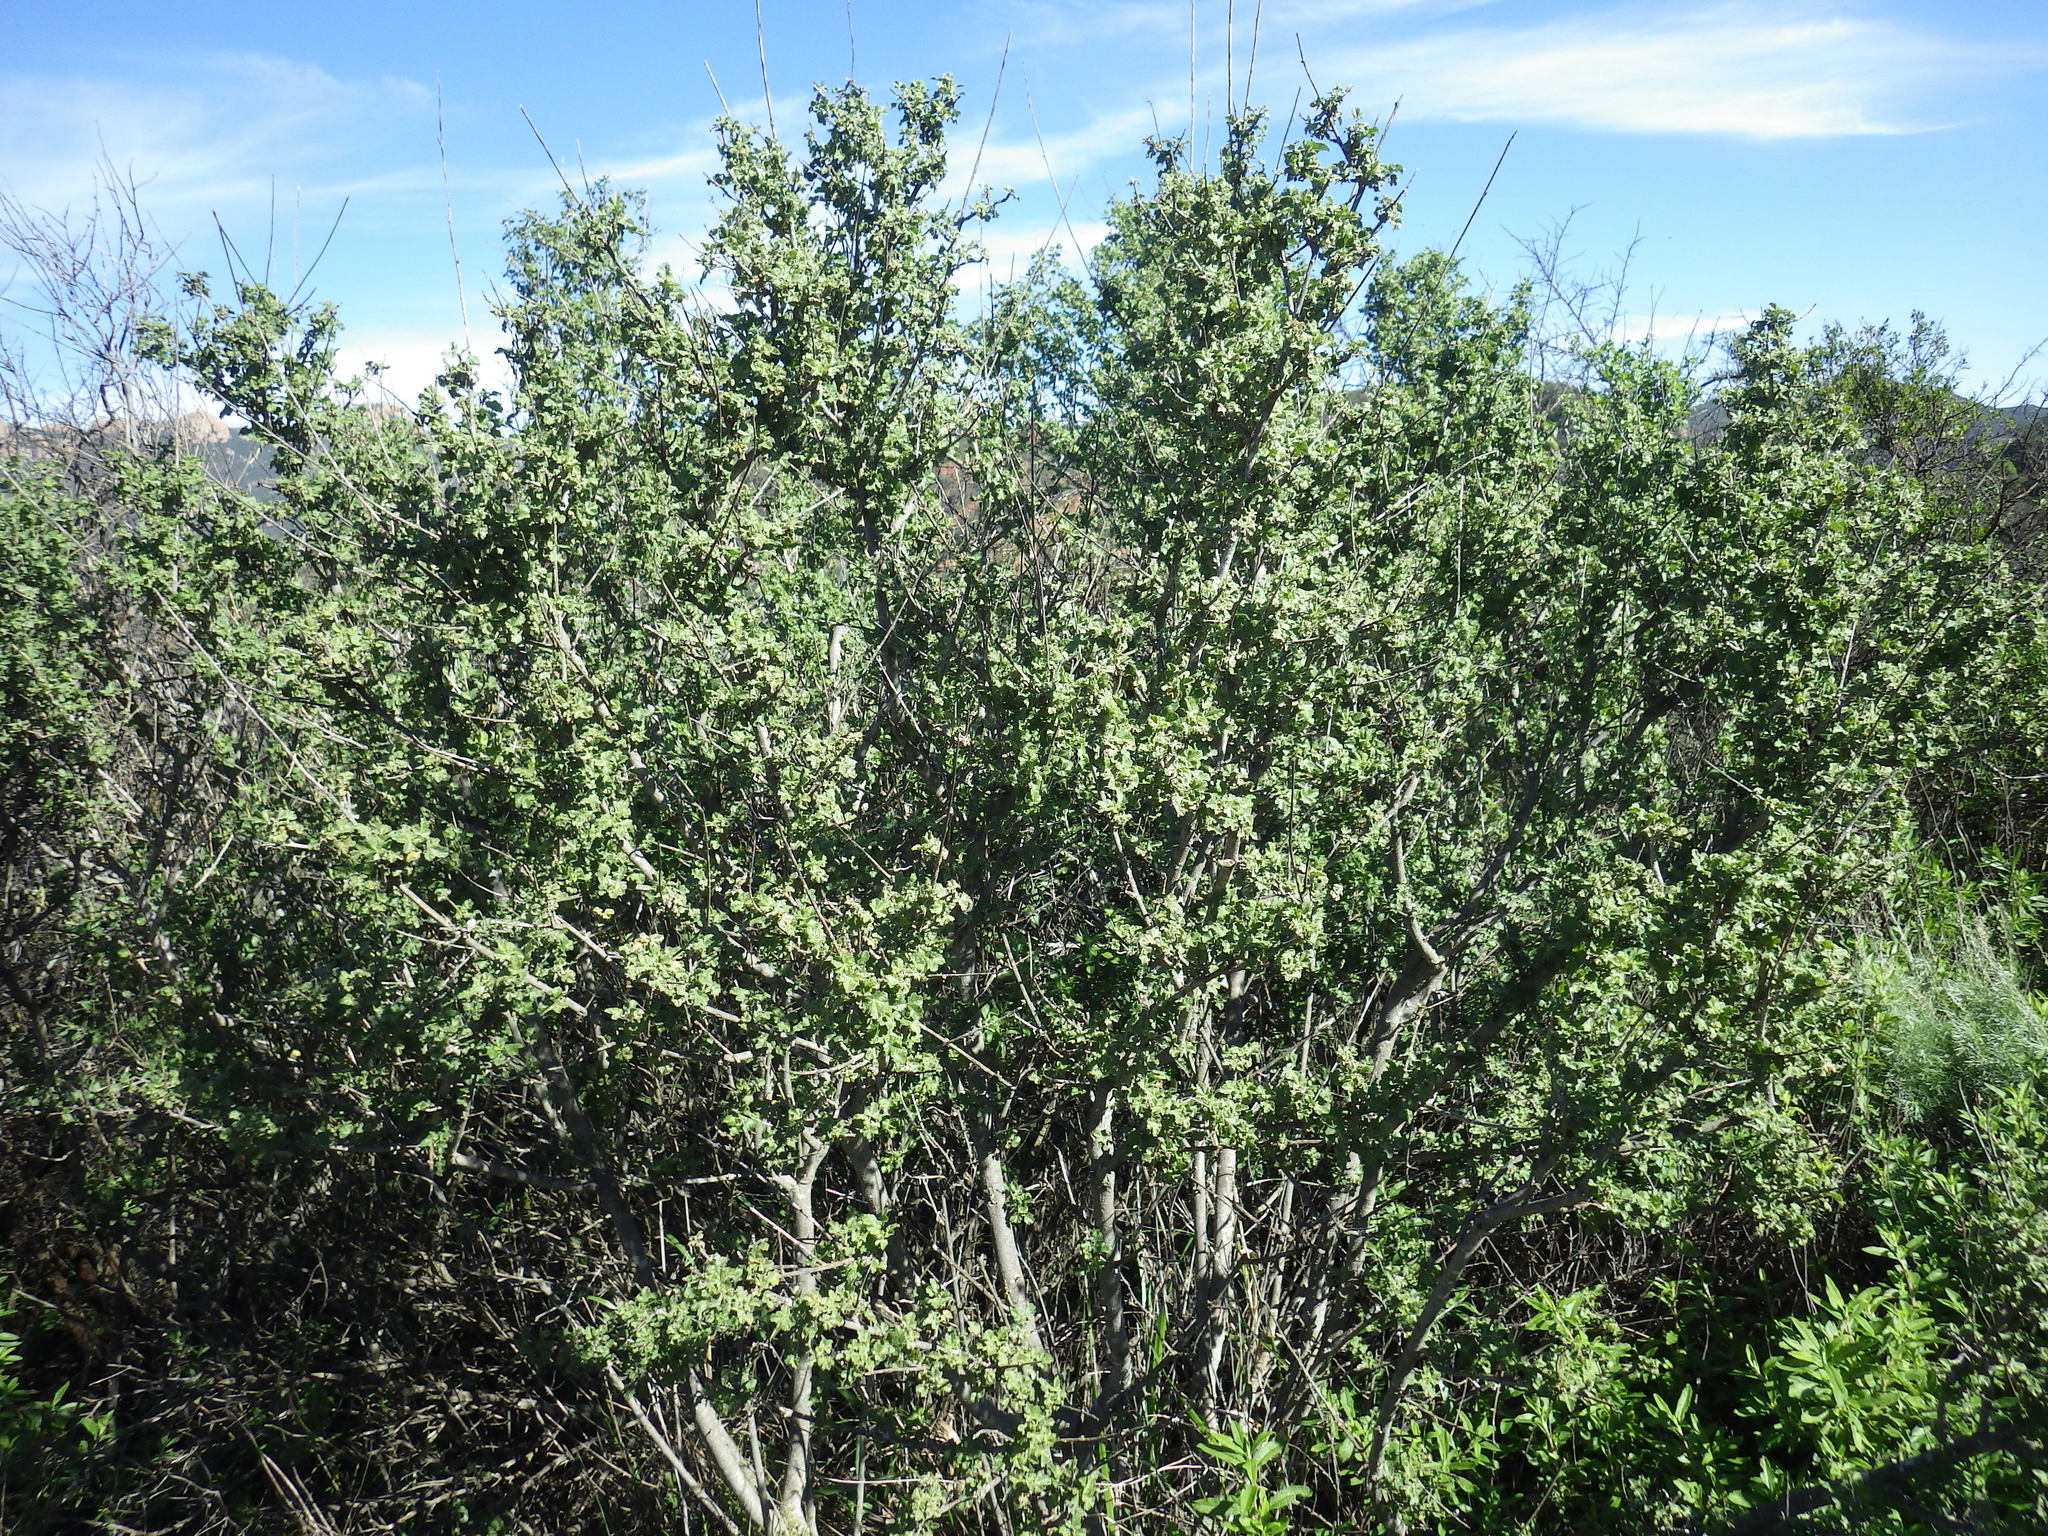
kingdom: Plantae
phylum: Tracheophyta
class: Magnoliopsida
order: Malvales
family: Malvaceae
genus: Malacothamnus
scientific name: Malacothamnus fasciculatus
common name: Sant cruz island bush-mallow
